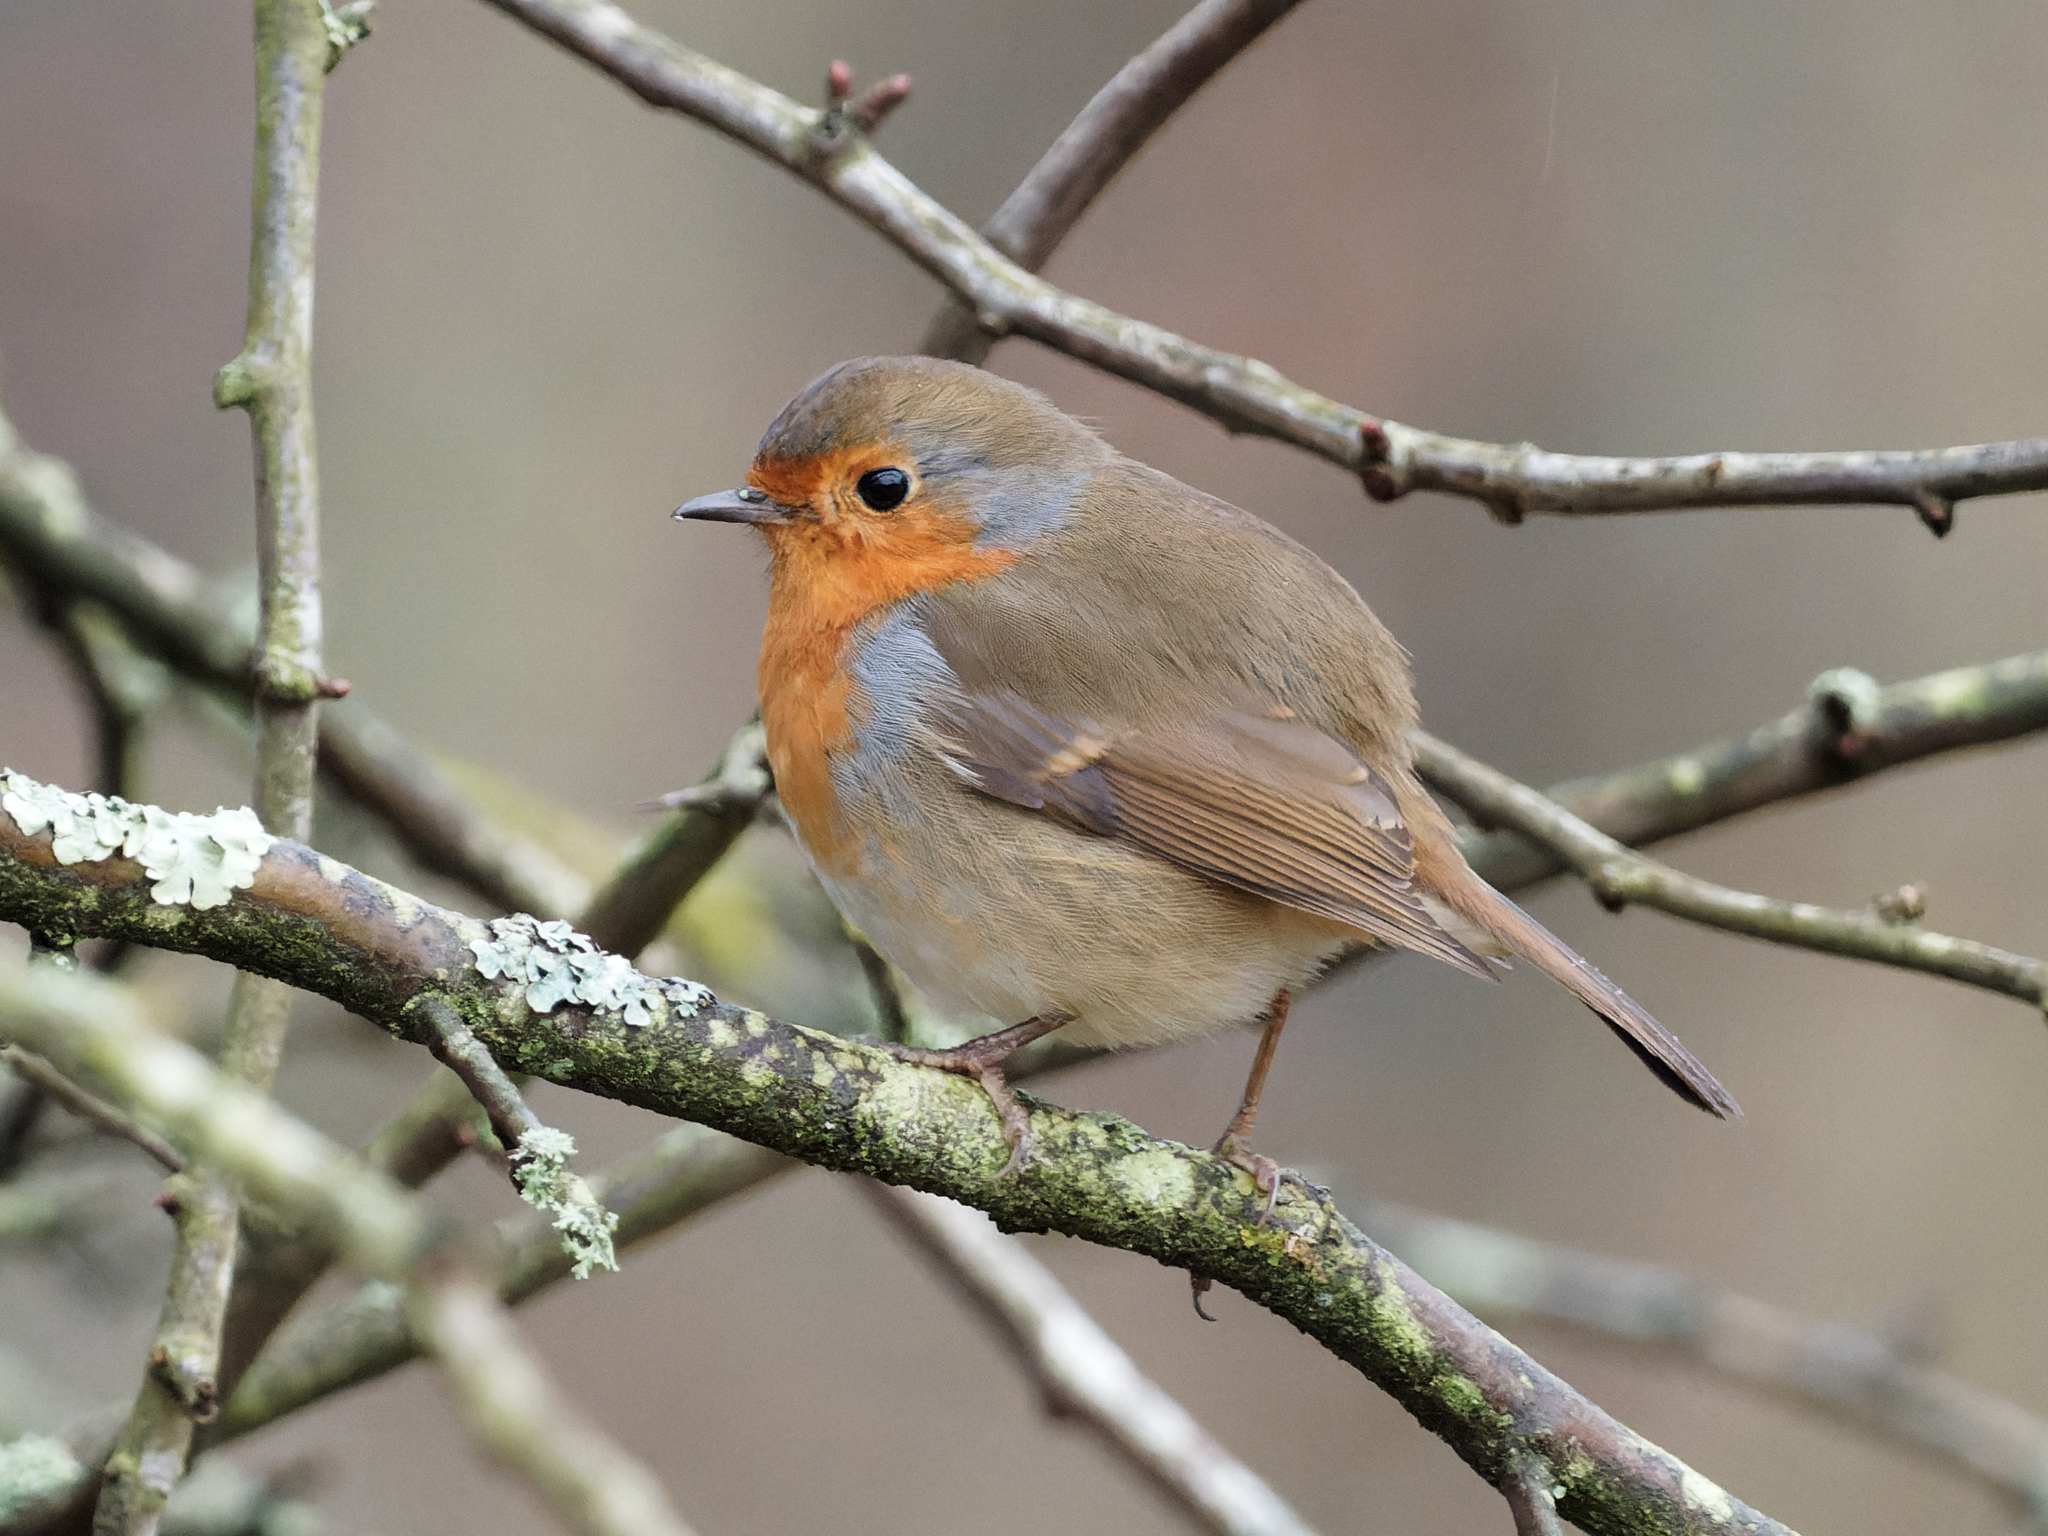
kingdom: Animalia
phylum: Chordata
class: Aves
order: Passeriformes
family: Muscicapidae
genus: Erithacus
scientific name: Erithacus rubecula
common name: European robin
